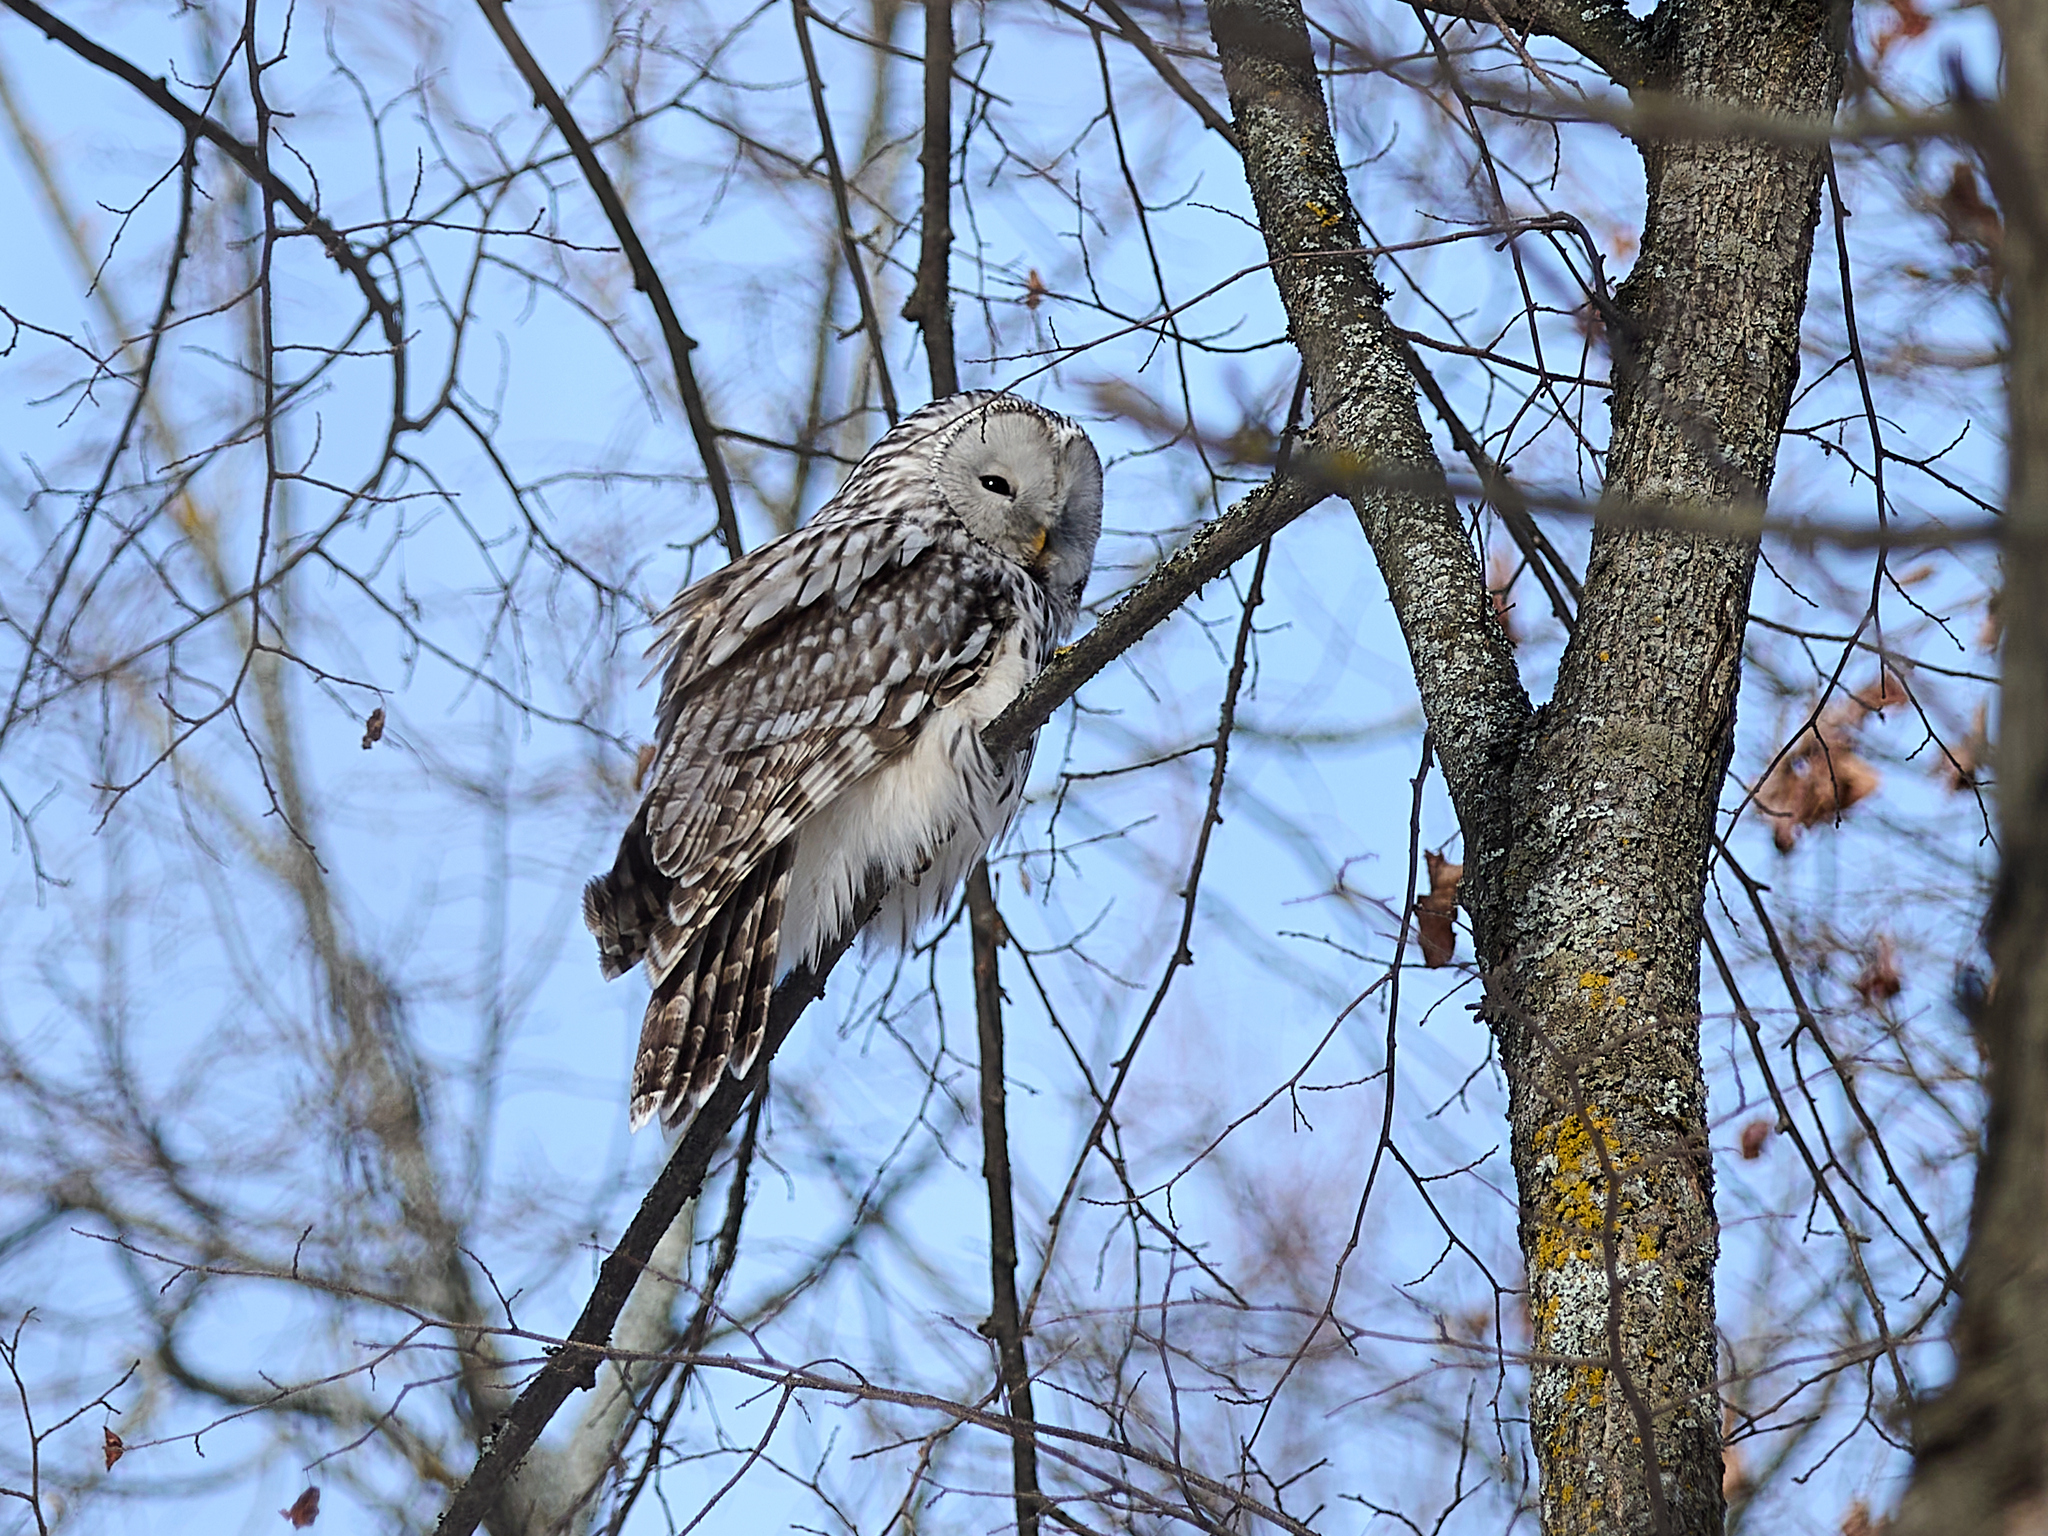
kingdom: Animalia
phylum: Chordata
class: Aves
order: Strigiformes
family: Strigidae
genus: Strix
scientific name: Strix uralensis
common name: Ural owl
